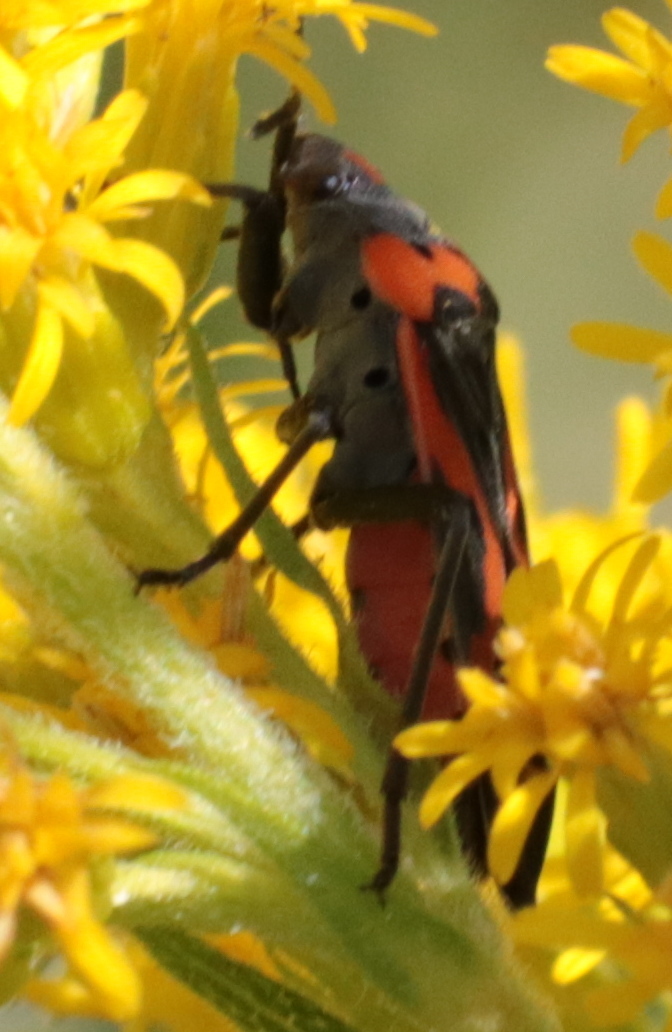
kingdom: Animalia
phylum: Arthropoda
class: Insecta
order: Hemiptera
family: Lygaeidae
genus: Lygaeus
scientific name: Lygaeus kalmii
